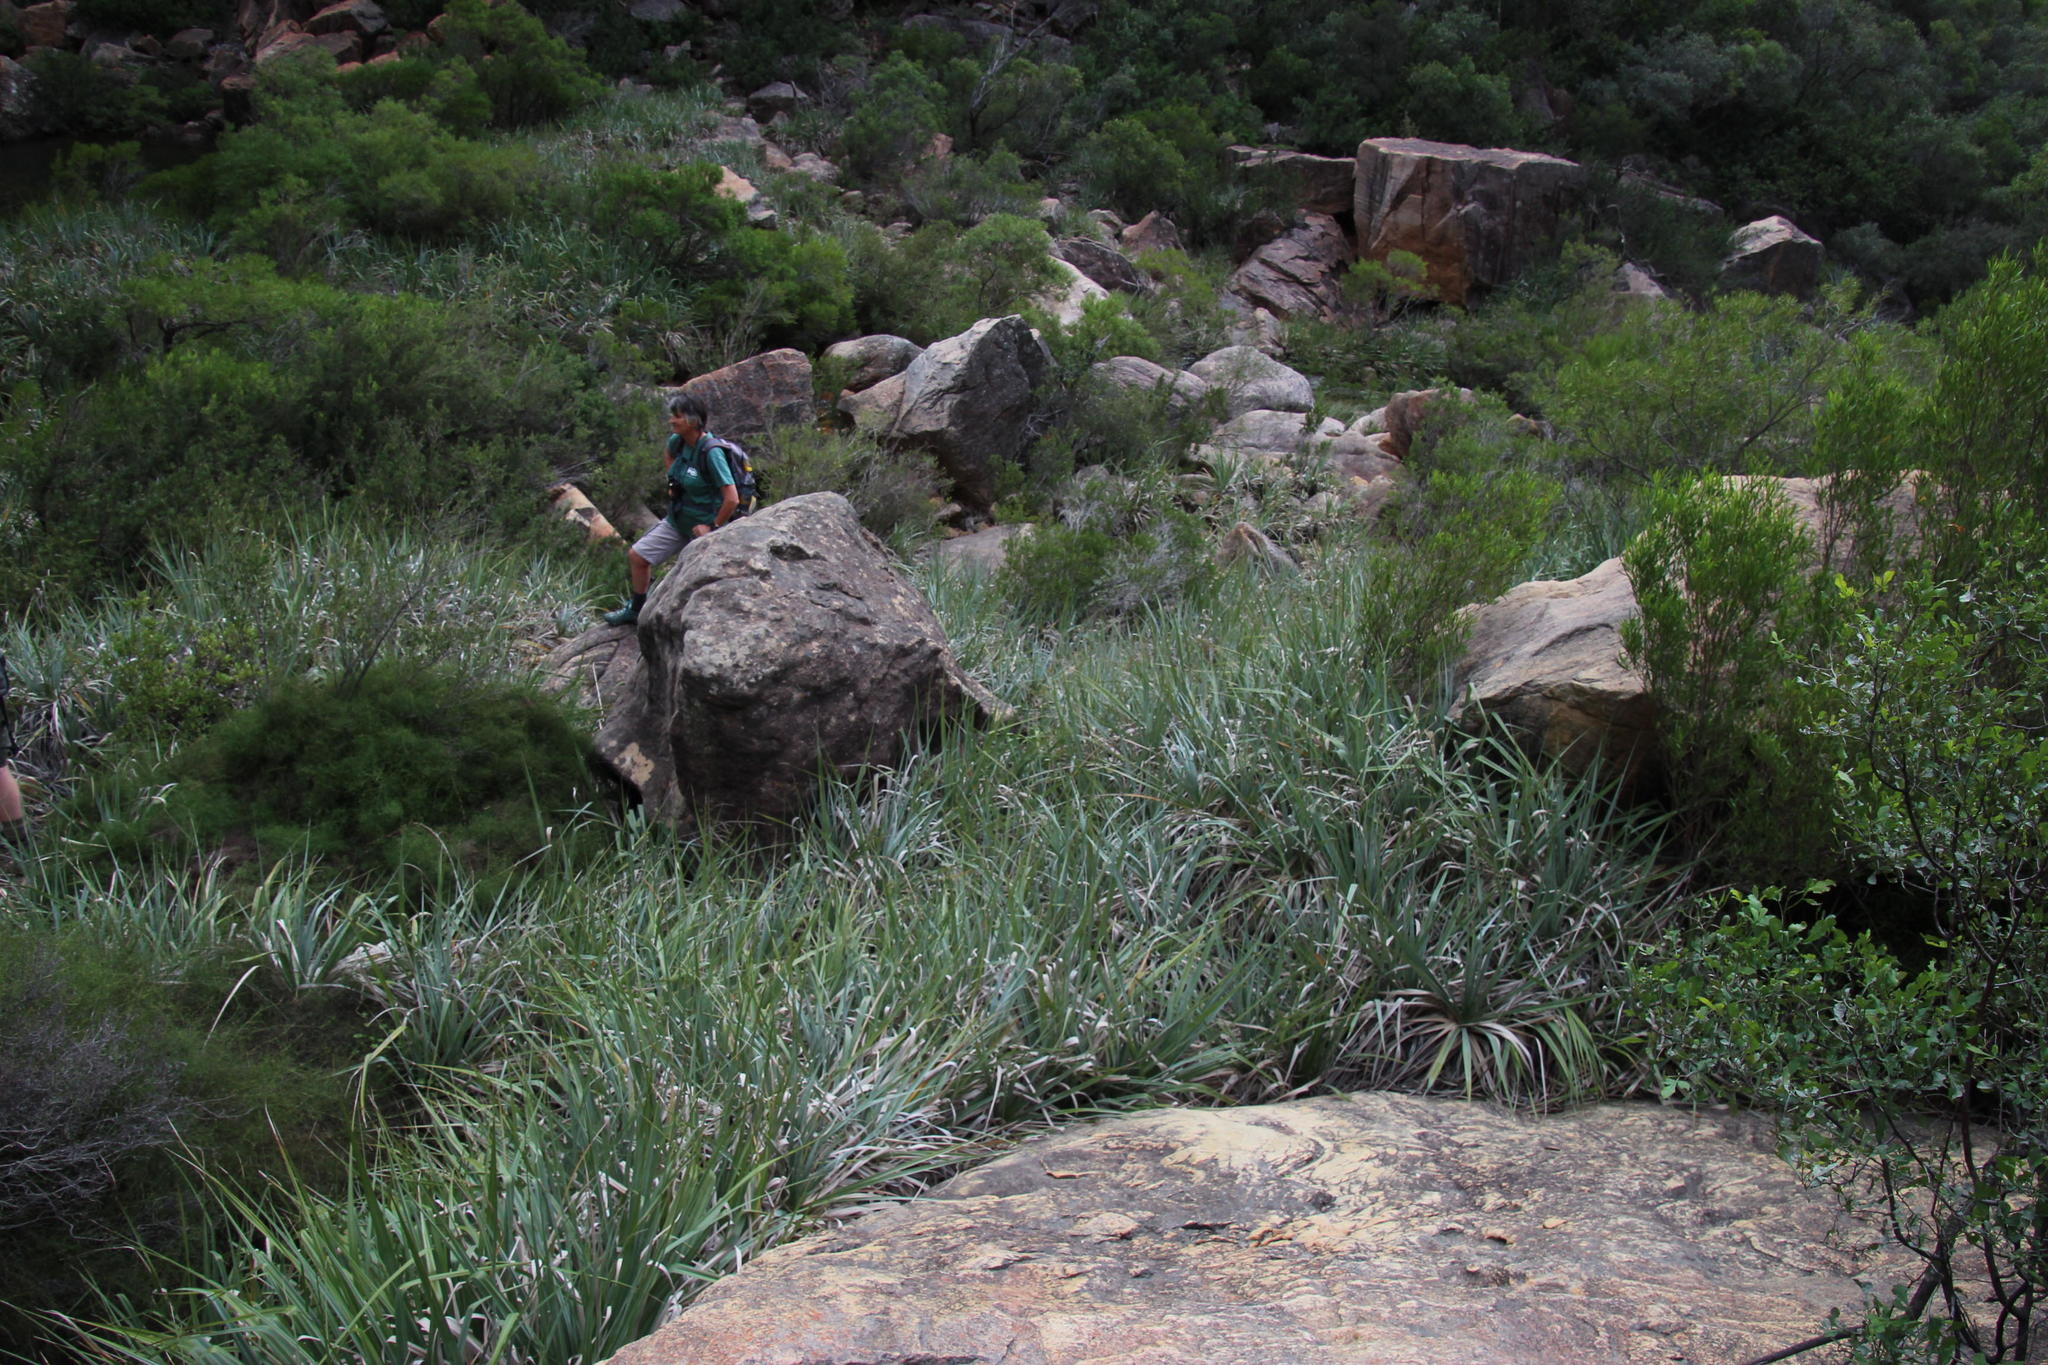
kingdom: Plantae
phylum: Tracheophyta
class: Liliopsida
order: Poales
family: Thurniaceae
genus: Prionium
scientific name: Prionium serratum
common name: Palmiet
